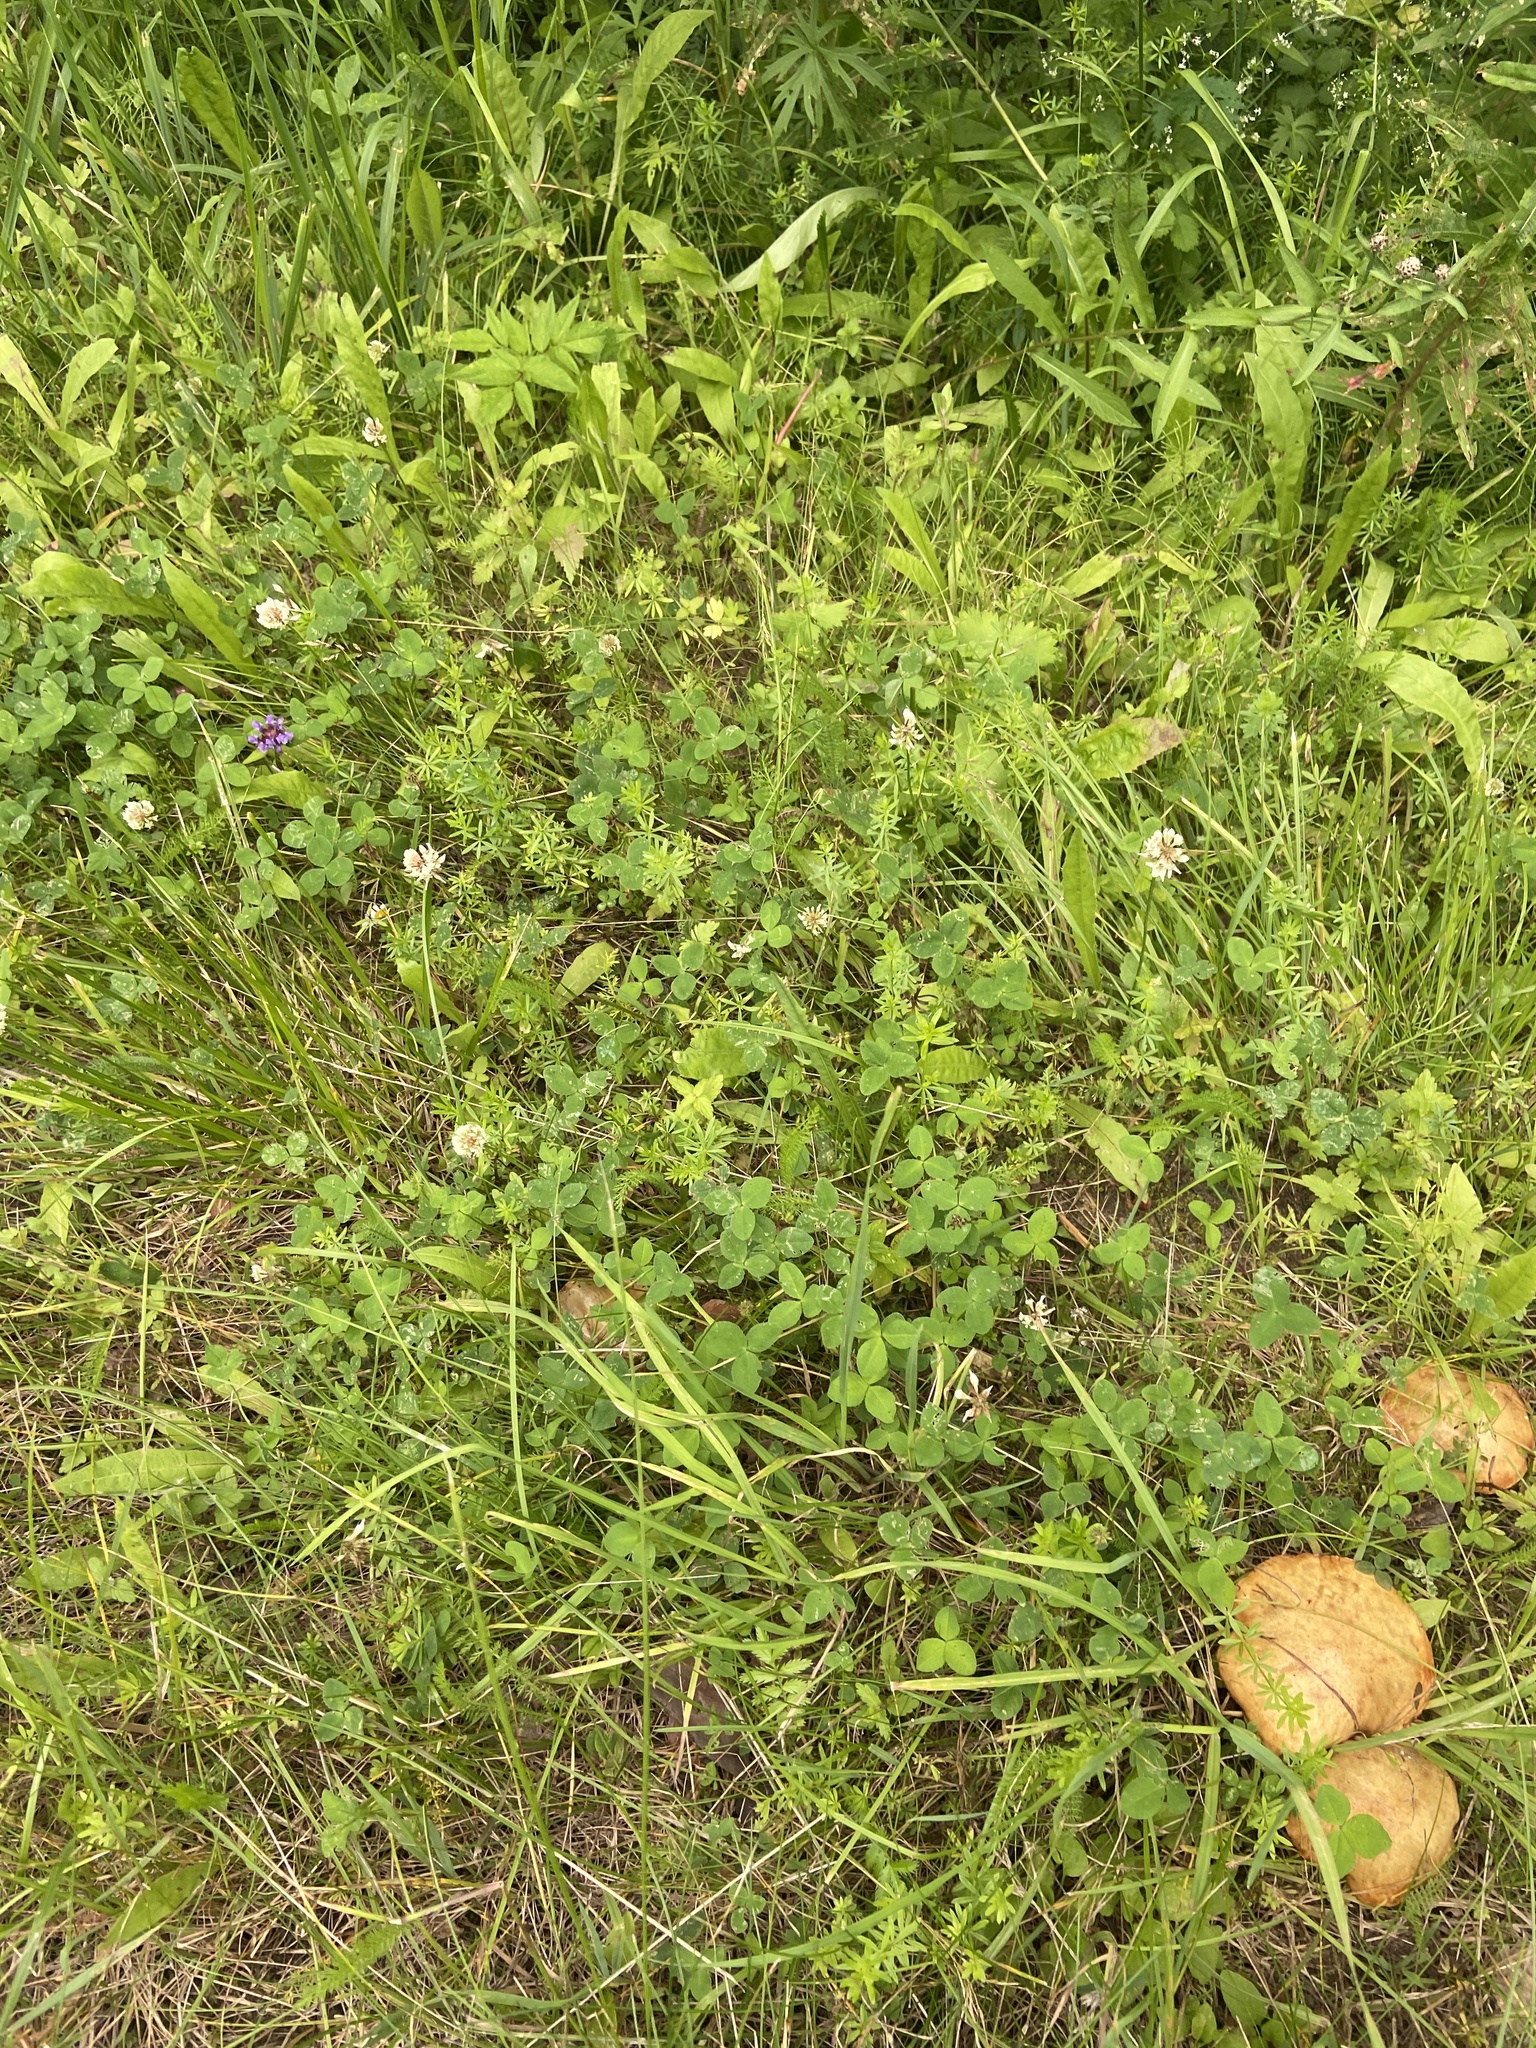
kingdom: Plantae
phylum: Tracheophyta
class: Magnoliopsida
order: Fabales
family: Fabaceae
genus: Trifolium
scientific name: Trifolium repens
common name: White clover
